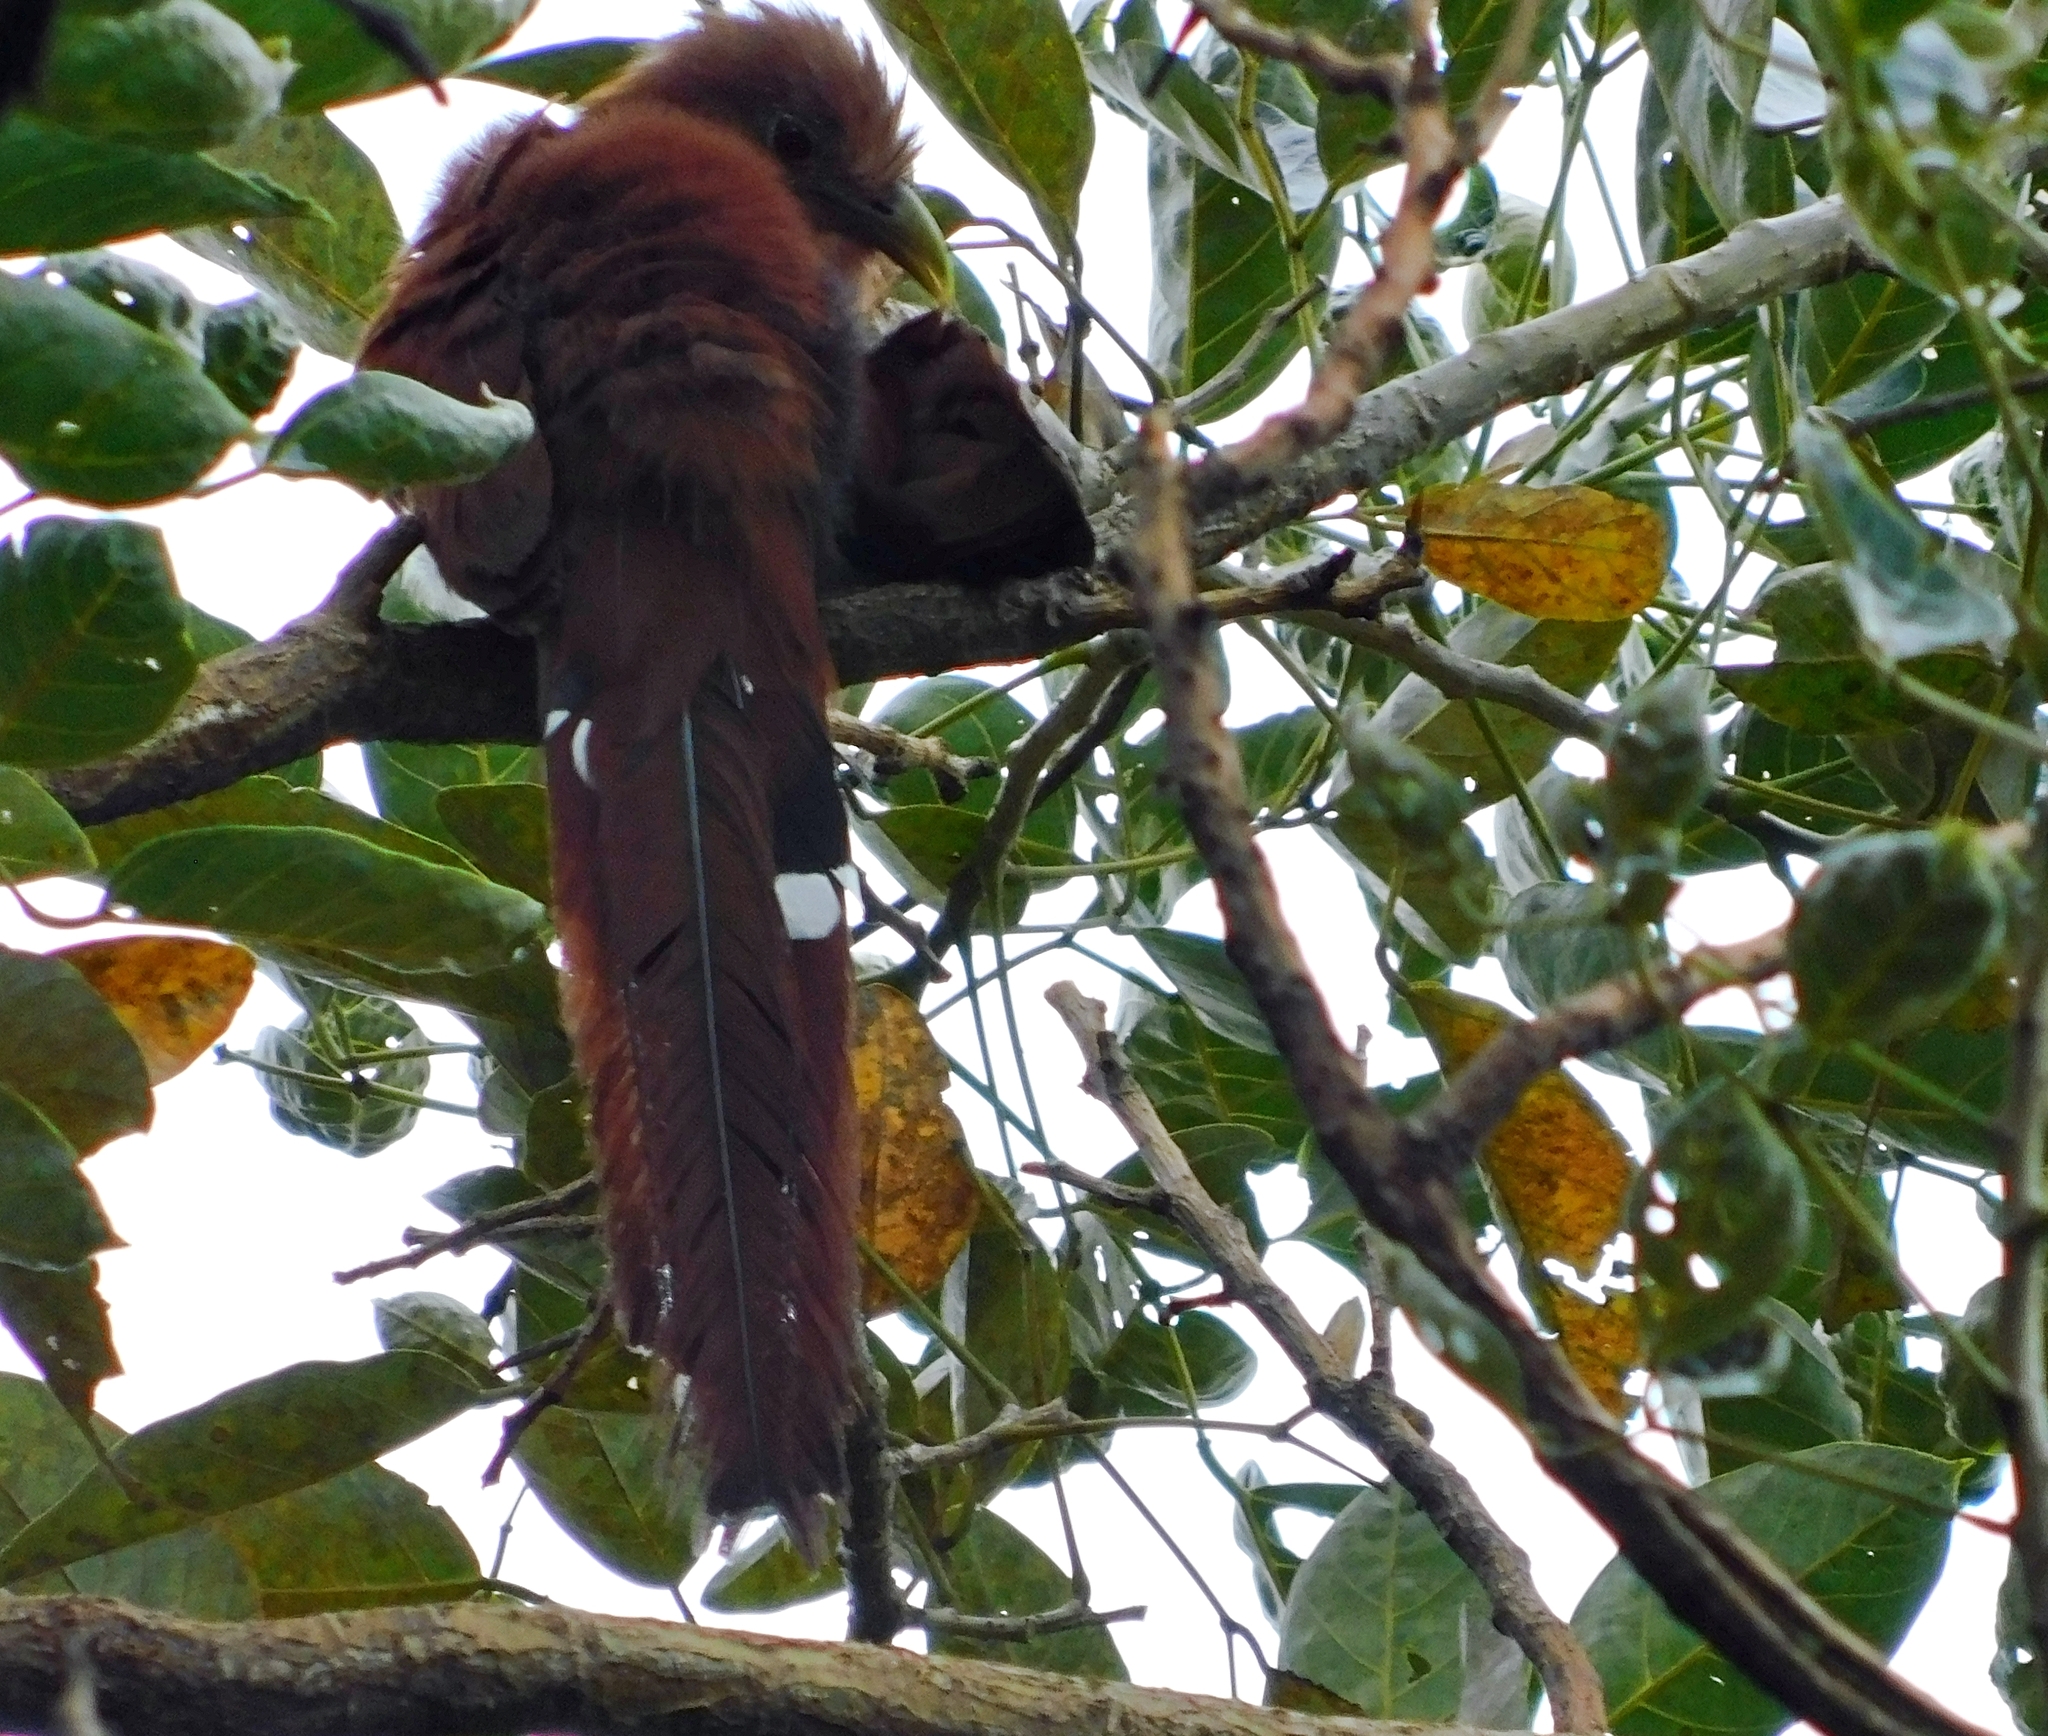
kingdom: Animalia
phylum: Chordata
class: Aves
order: Cuculiformes
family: Cuculidae
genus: Piaya
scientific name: Piaya cayana
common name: Squirrel cuckoo
